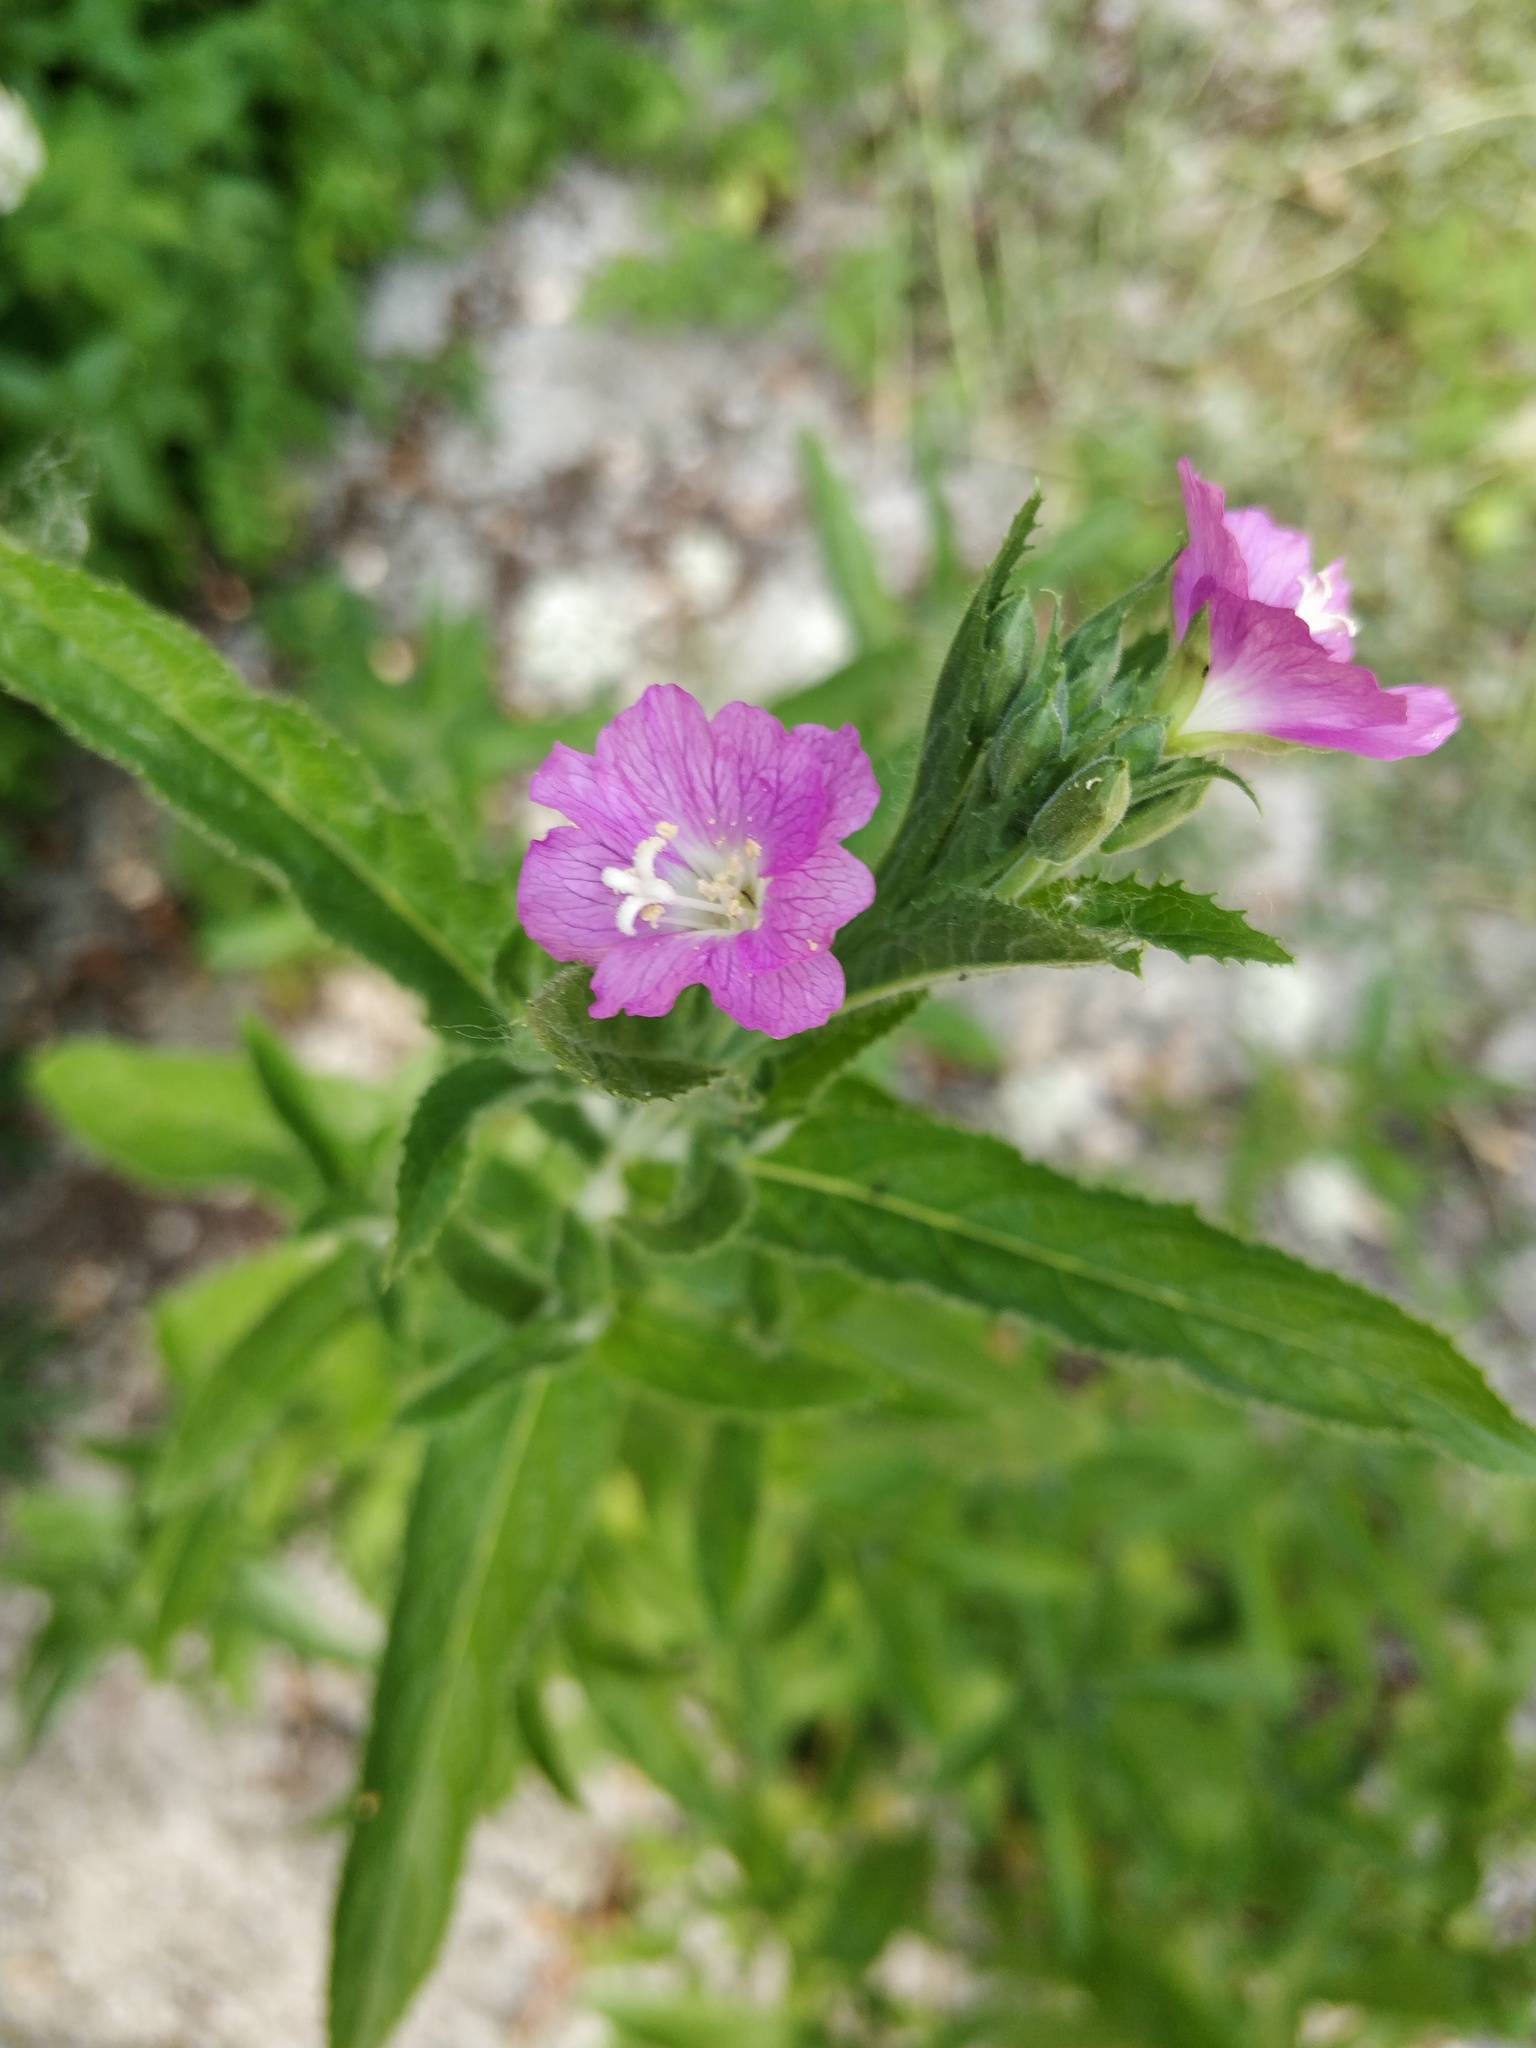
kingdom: Plantae
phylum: Tracheophyta
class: Magnoliopsida
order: Myrtales
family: Onagraceae
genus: Epilobium
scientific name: Epilobium hirsutum
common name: Great willowherb
